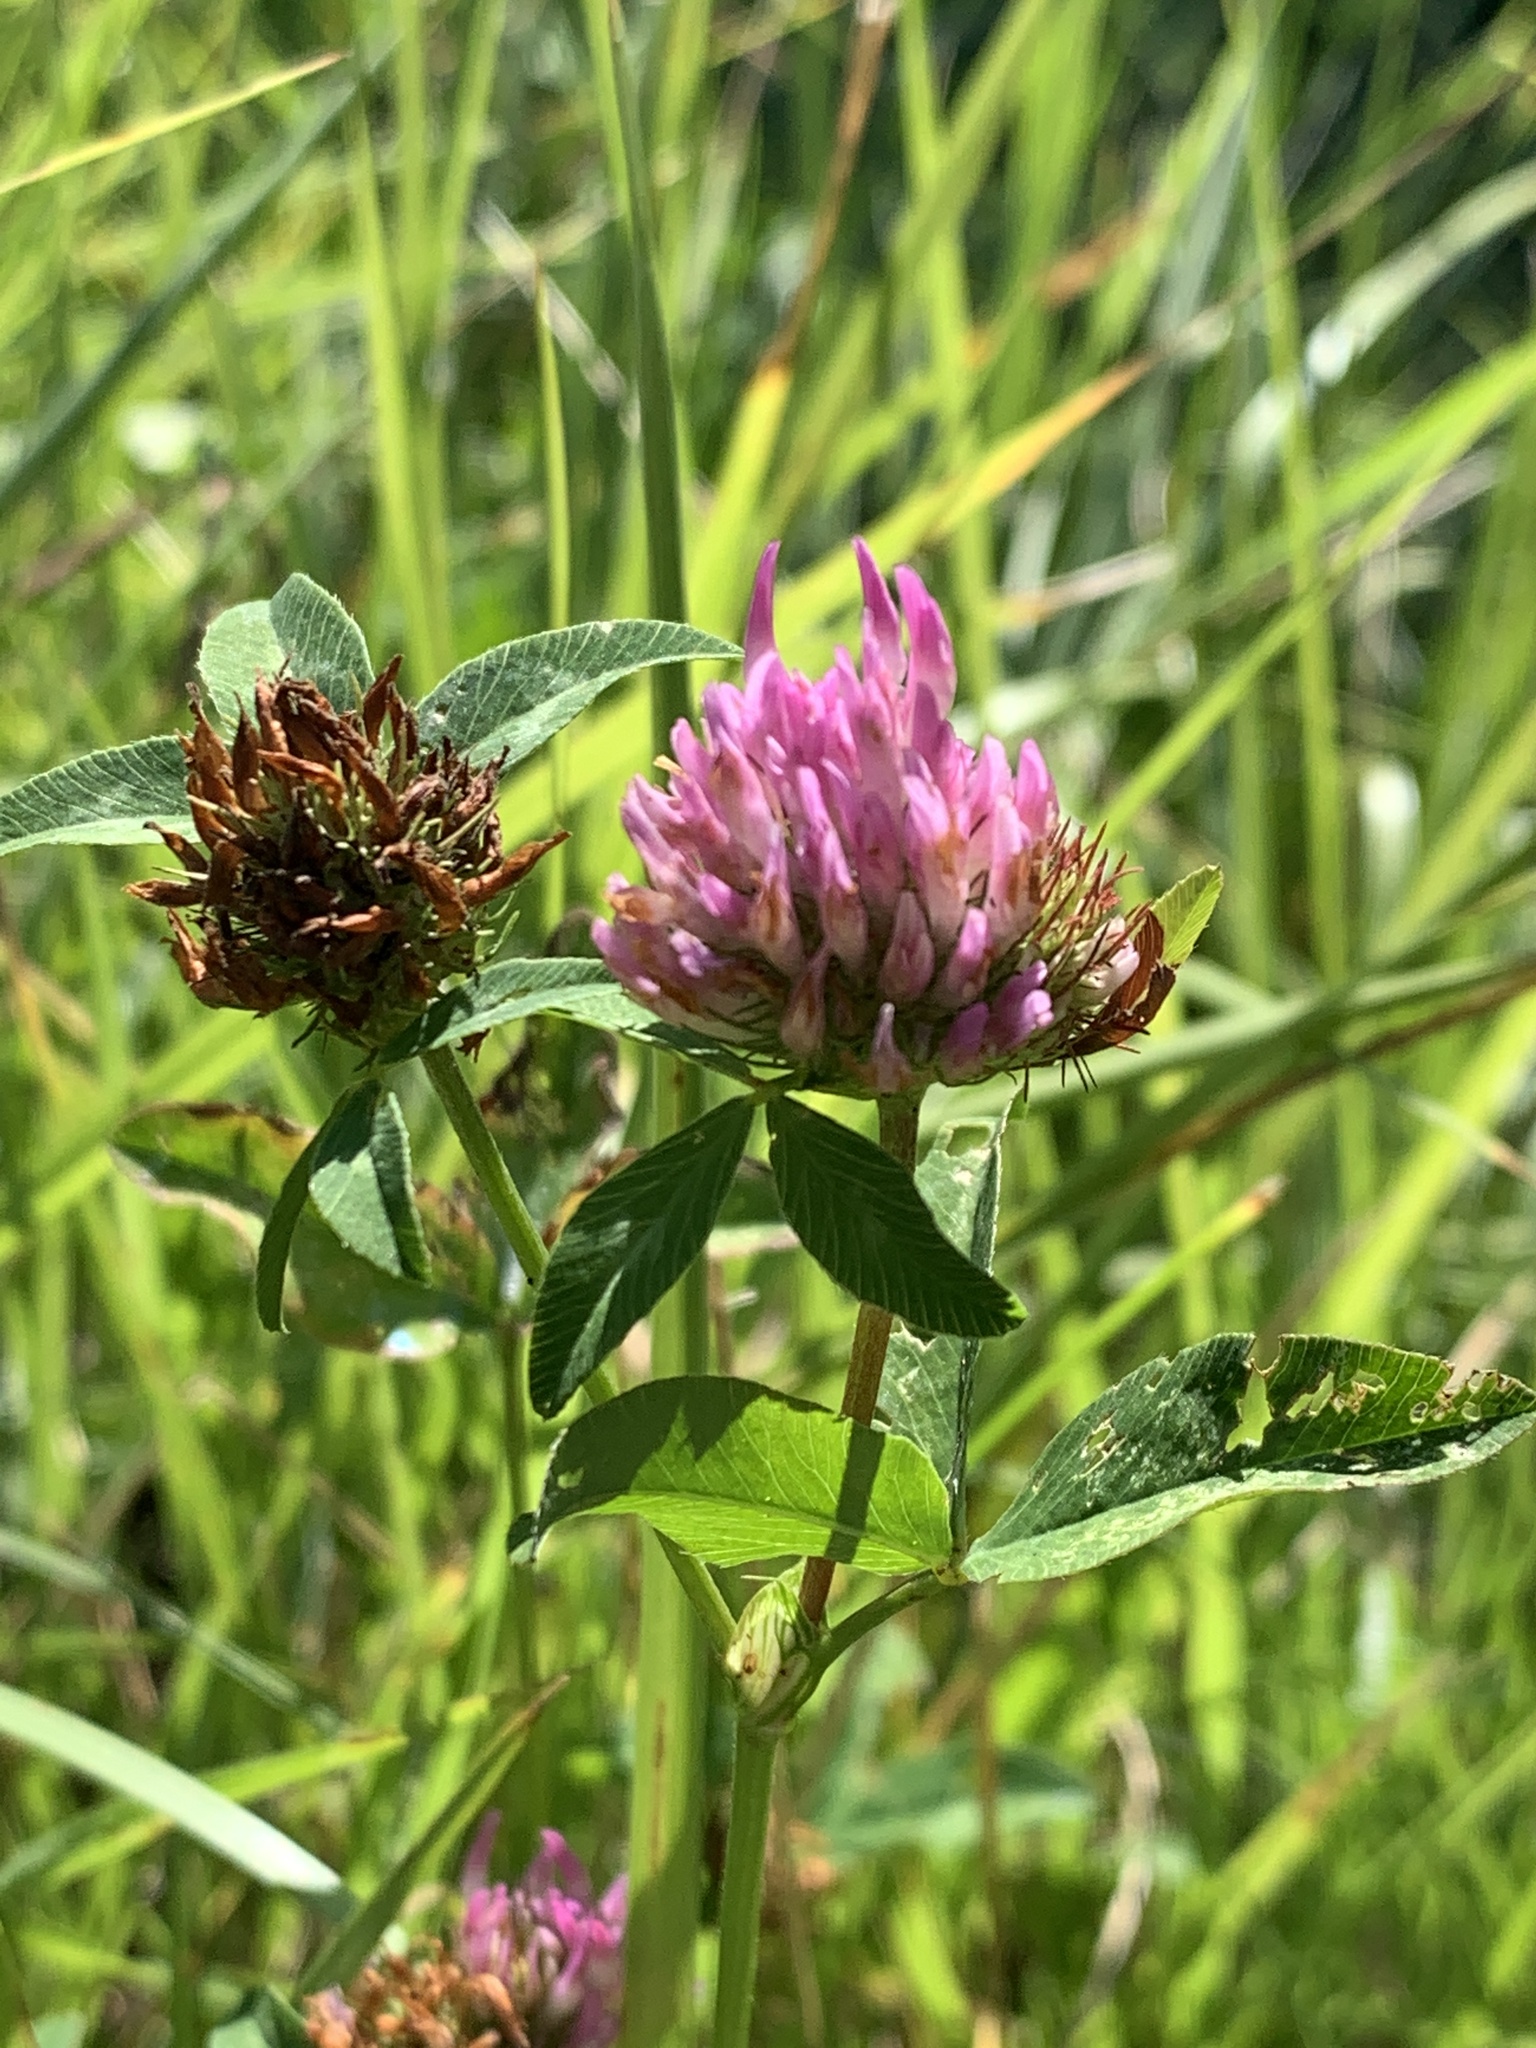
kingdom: Plantae
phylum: Tracheophyta
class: Magnoliopsida
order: Fabales
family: Fabaceae
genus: Trifolium
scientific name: Trifolium pratense
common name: Red clover
